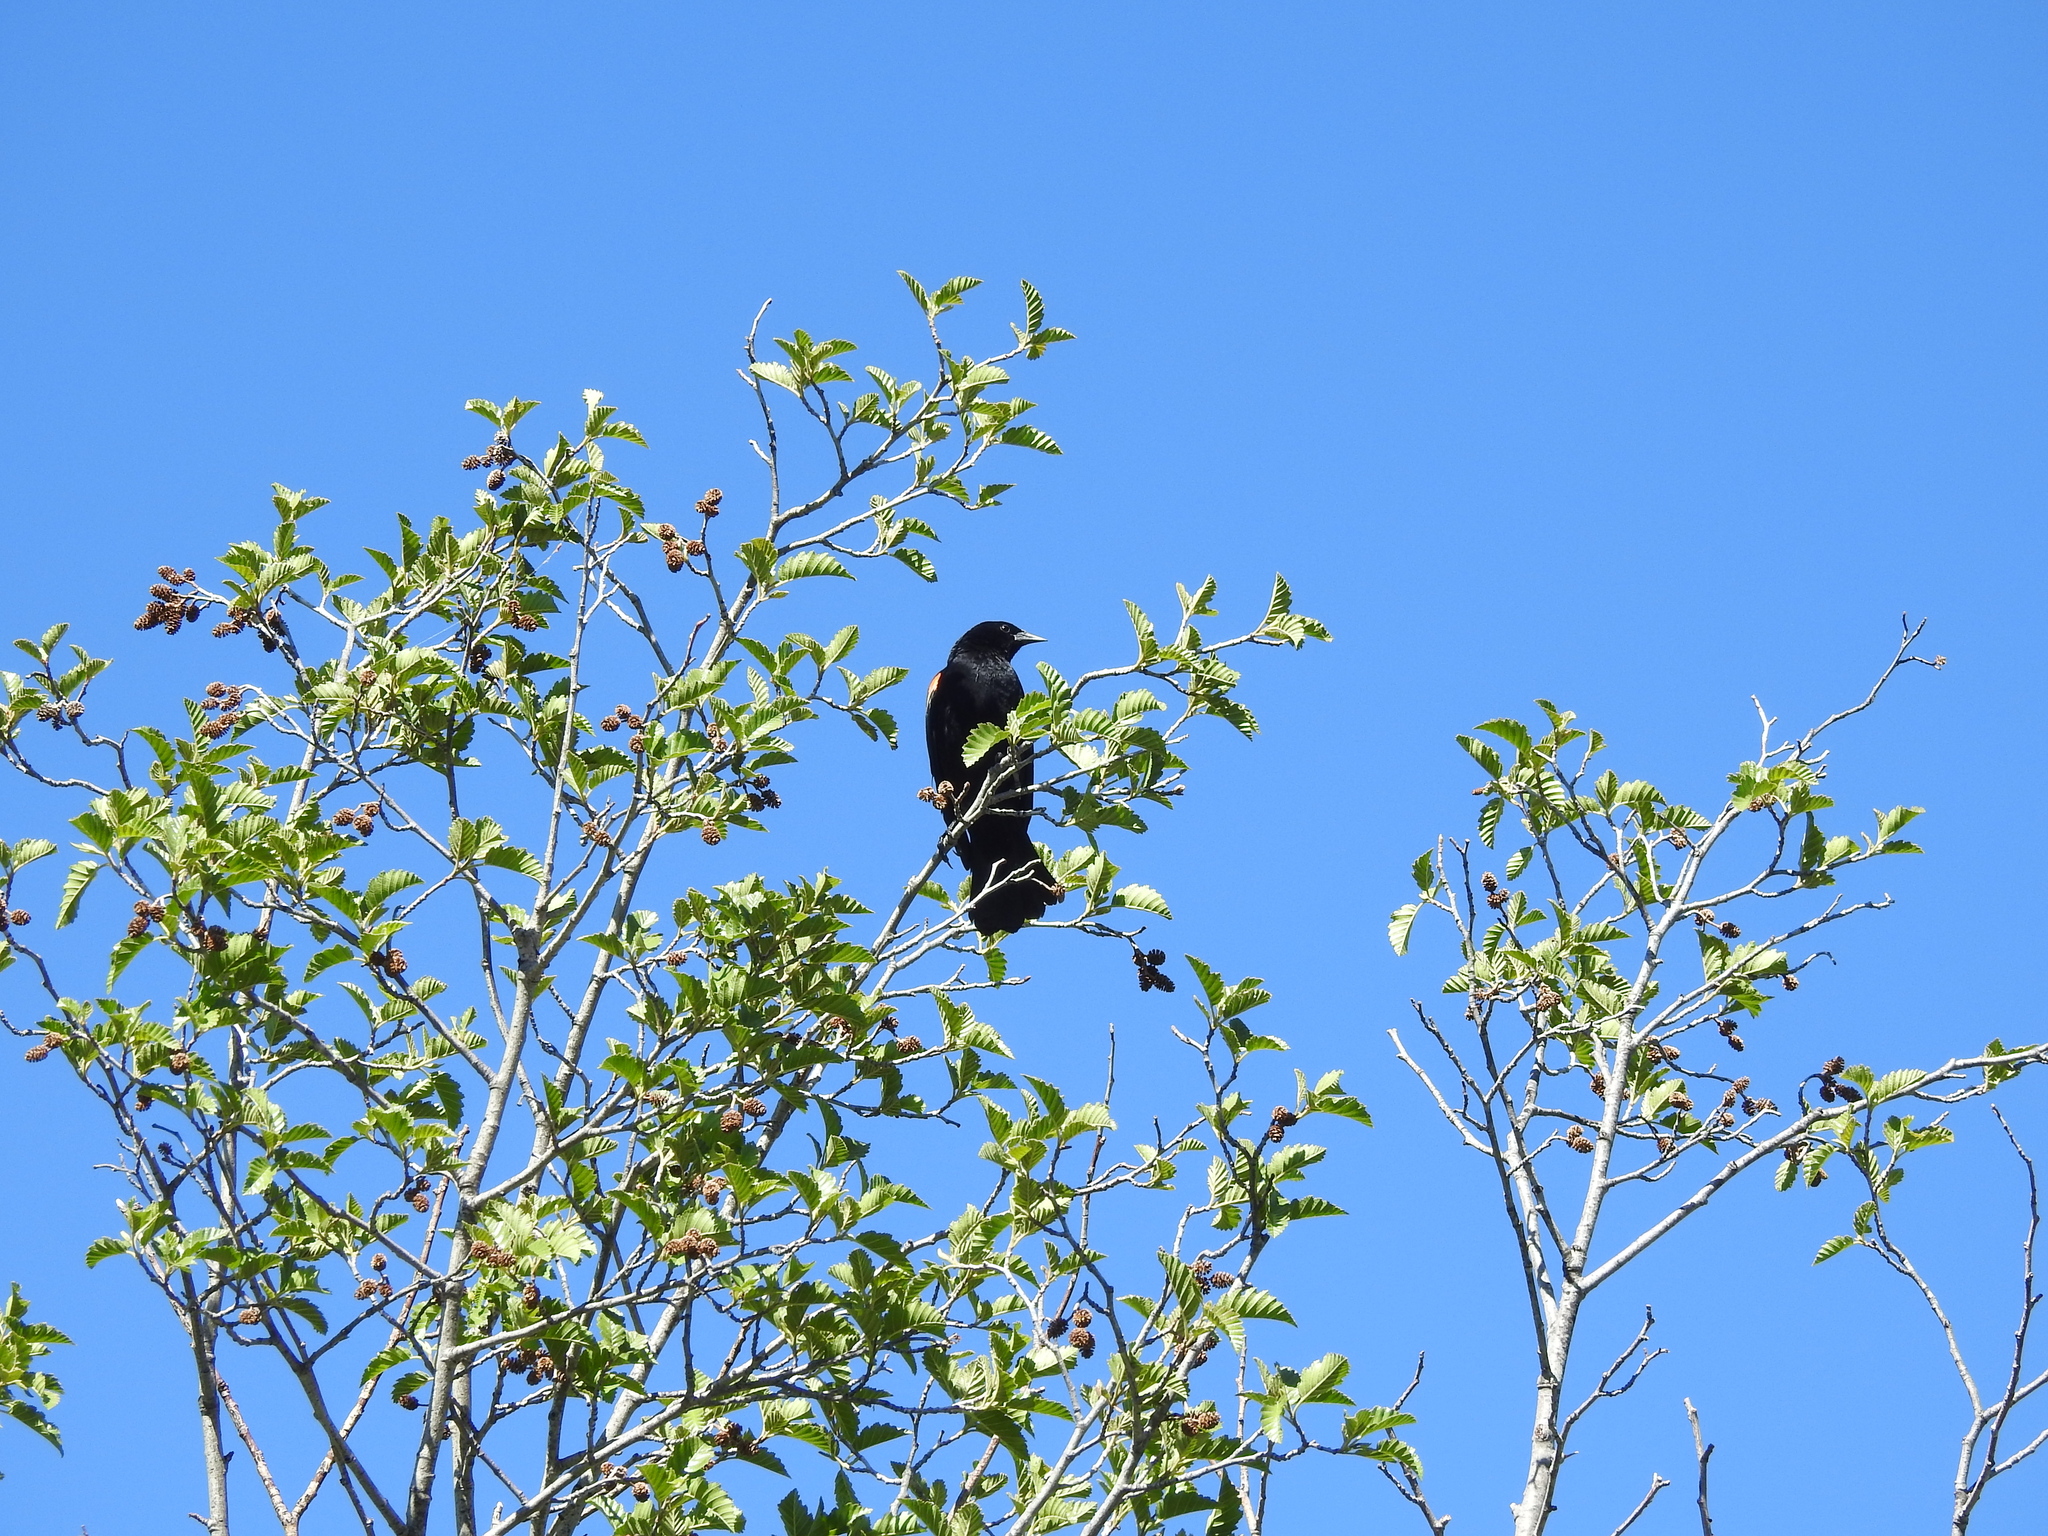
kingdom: Animalia
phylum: Chordata
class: Aves
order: Passeriformes
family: Icteridae
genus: Agelaius
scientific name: Agelaius phoeniceus
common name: Red-winged blackbird
